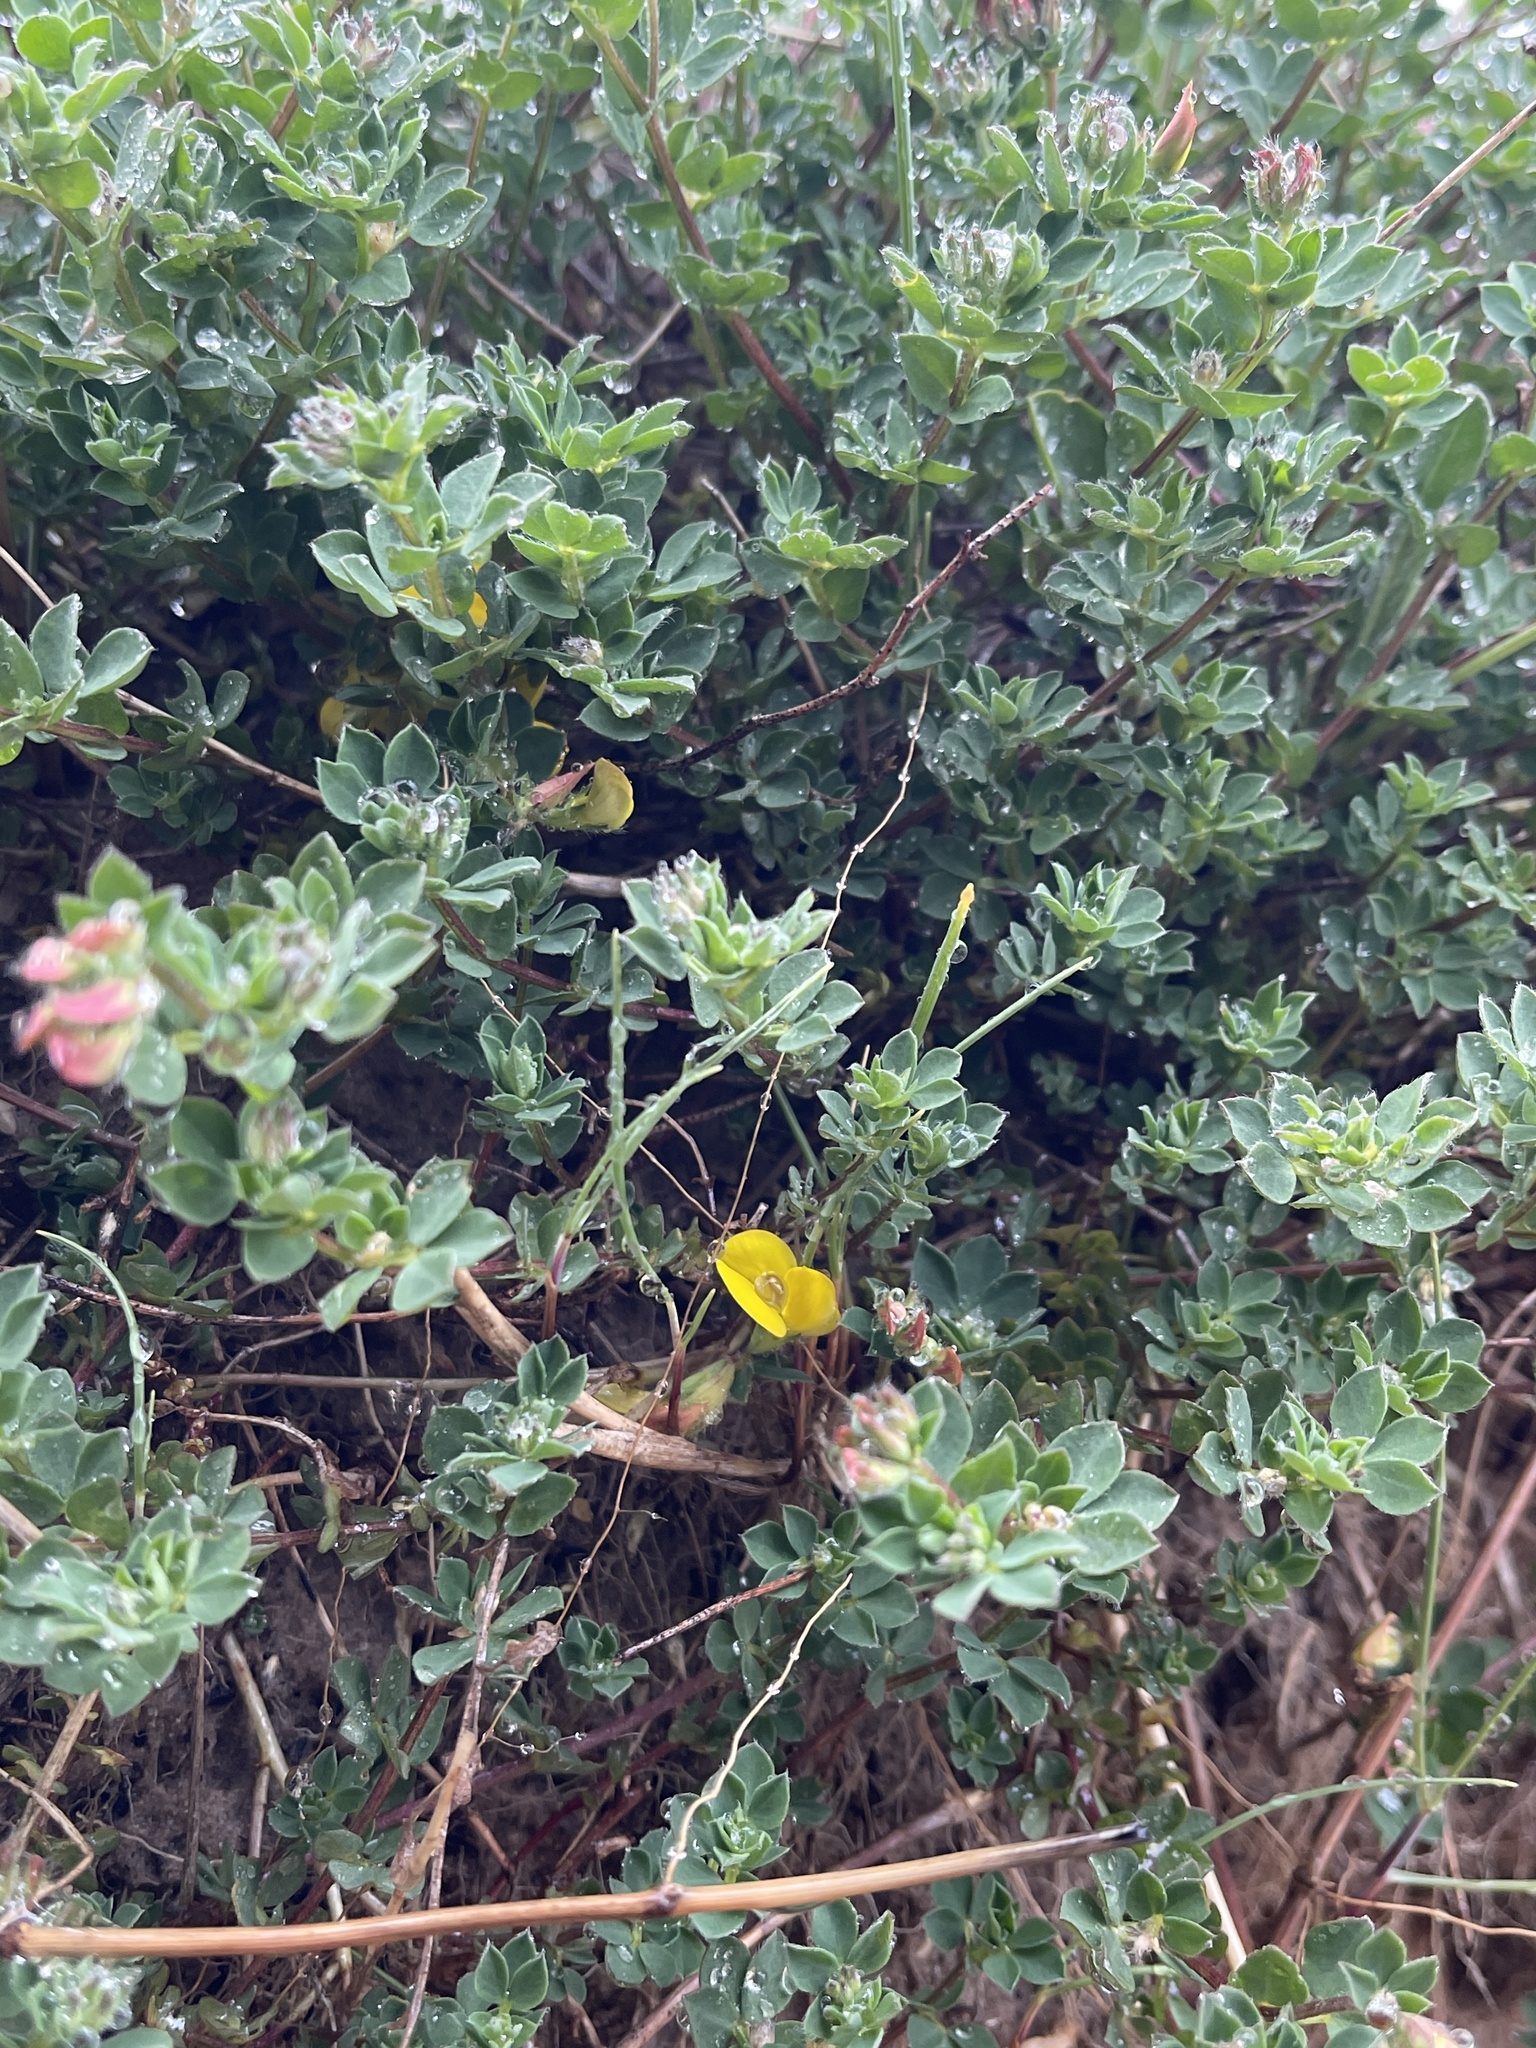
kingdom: Plantae
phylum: Tracheophyta
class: Magnoliopsida
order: Fabales
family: Fabaceae
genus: Lotus
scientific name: Lotus corniculatus
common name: Common bird's-foot-trefoil
